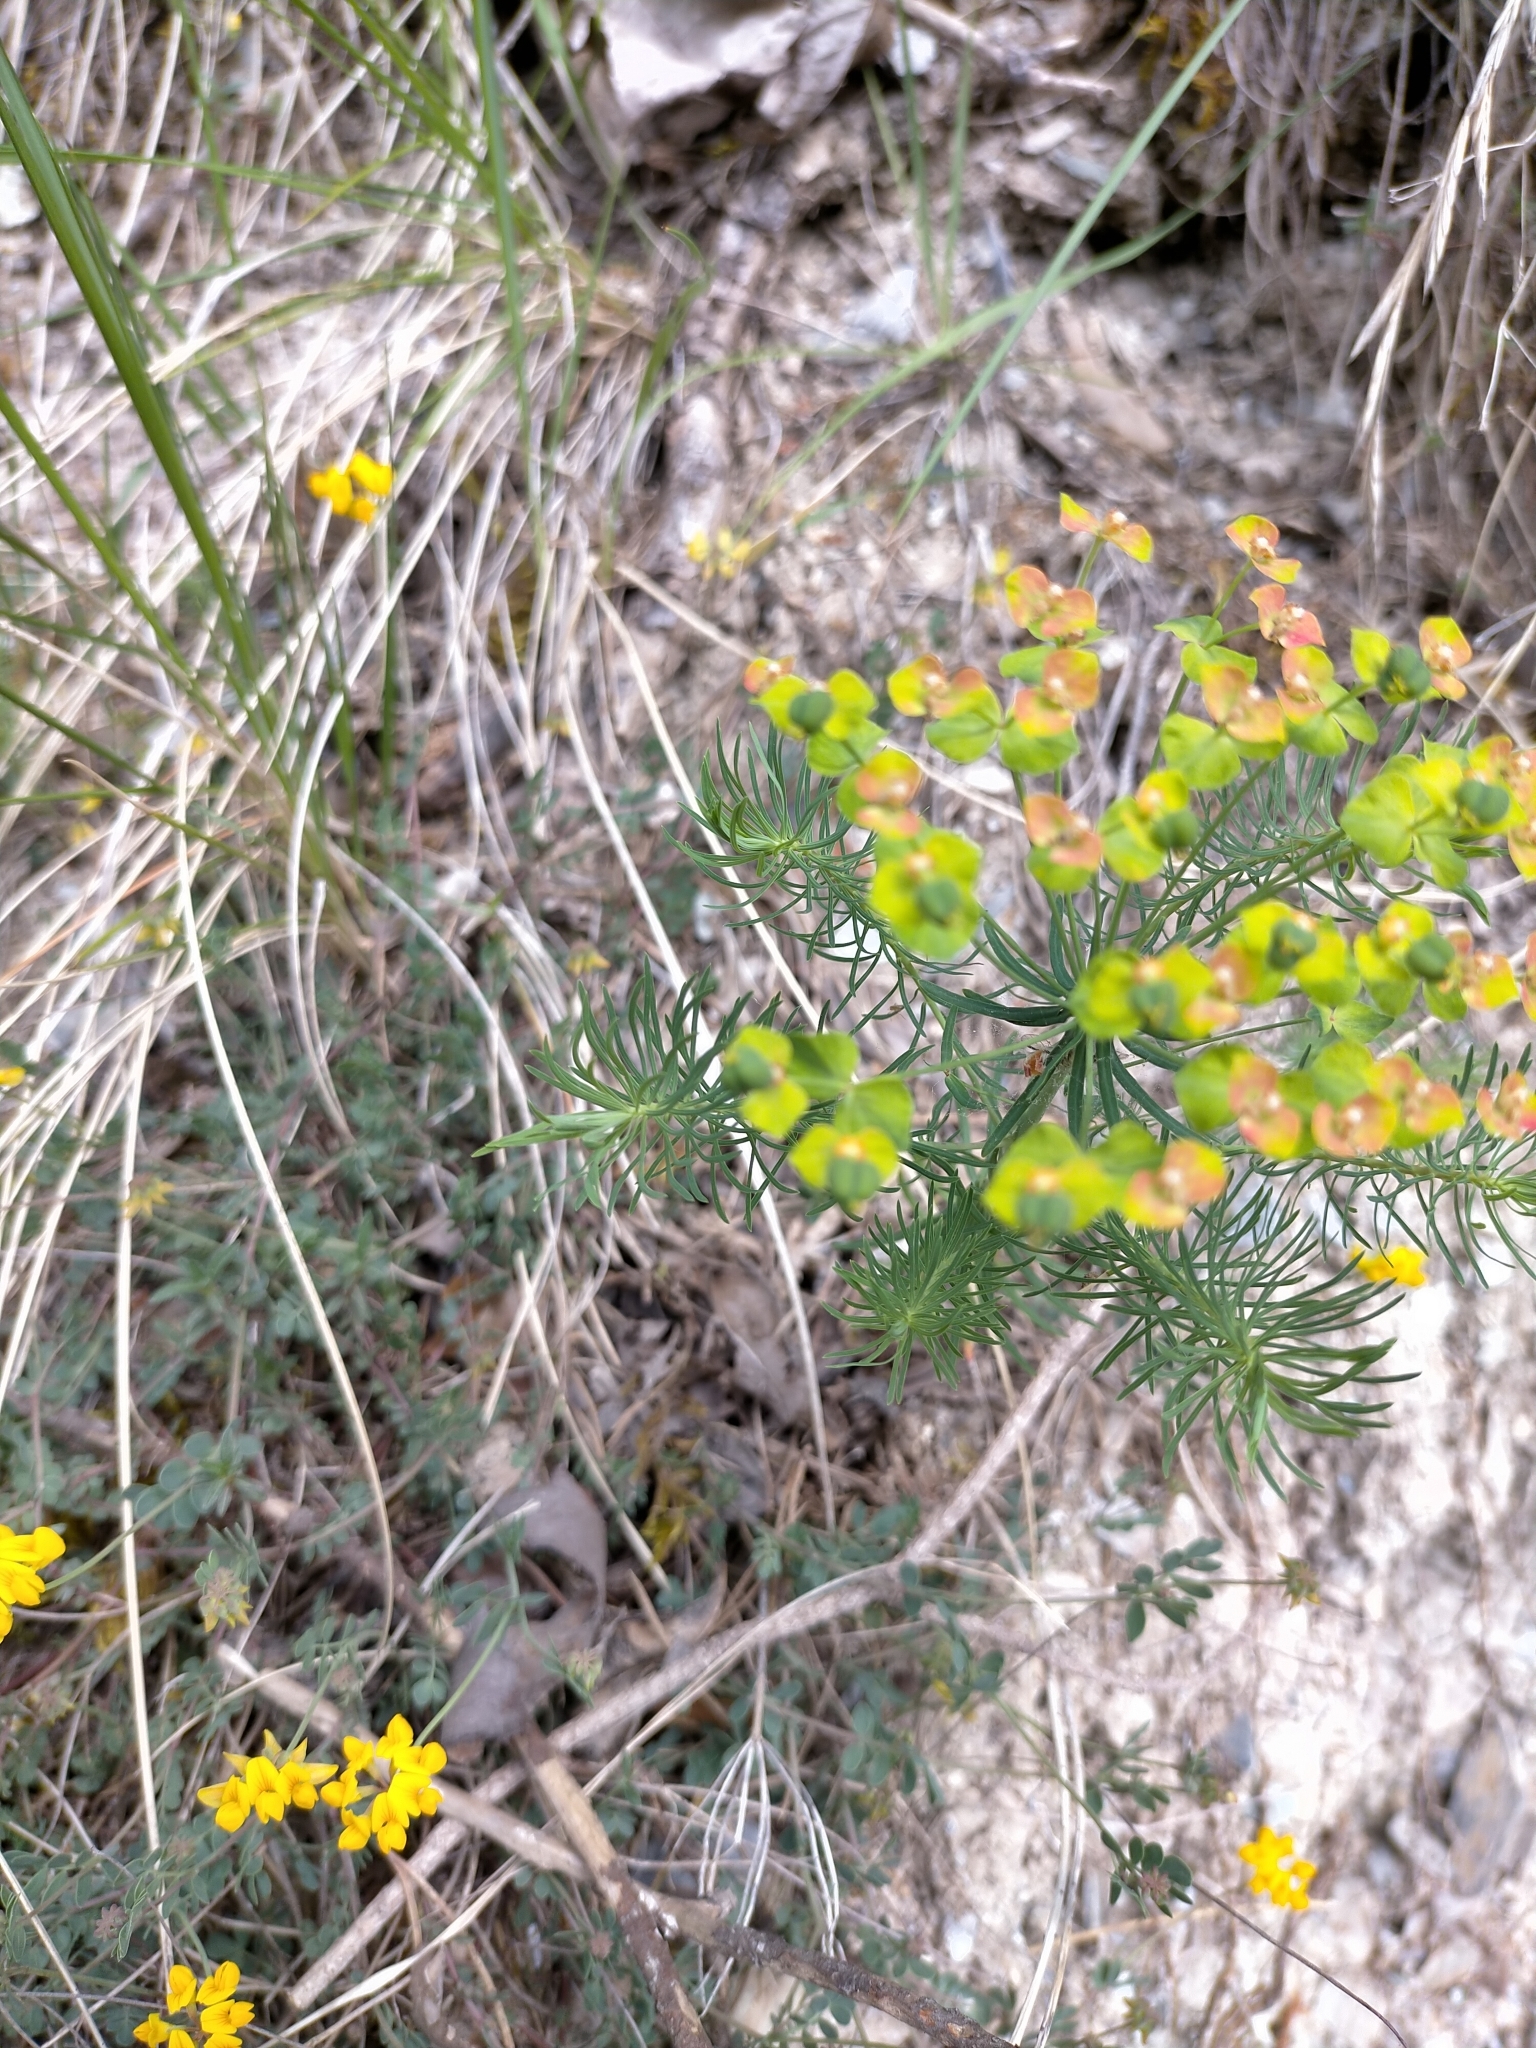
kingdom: Plantae
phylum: Tracheophyta
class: Magnoliopsida
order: Malpighiales
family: Euphorbiaceae
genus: Euphorbia
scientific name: Euphorbia cyparissias
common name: Cypress spurge
